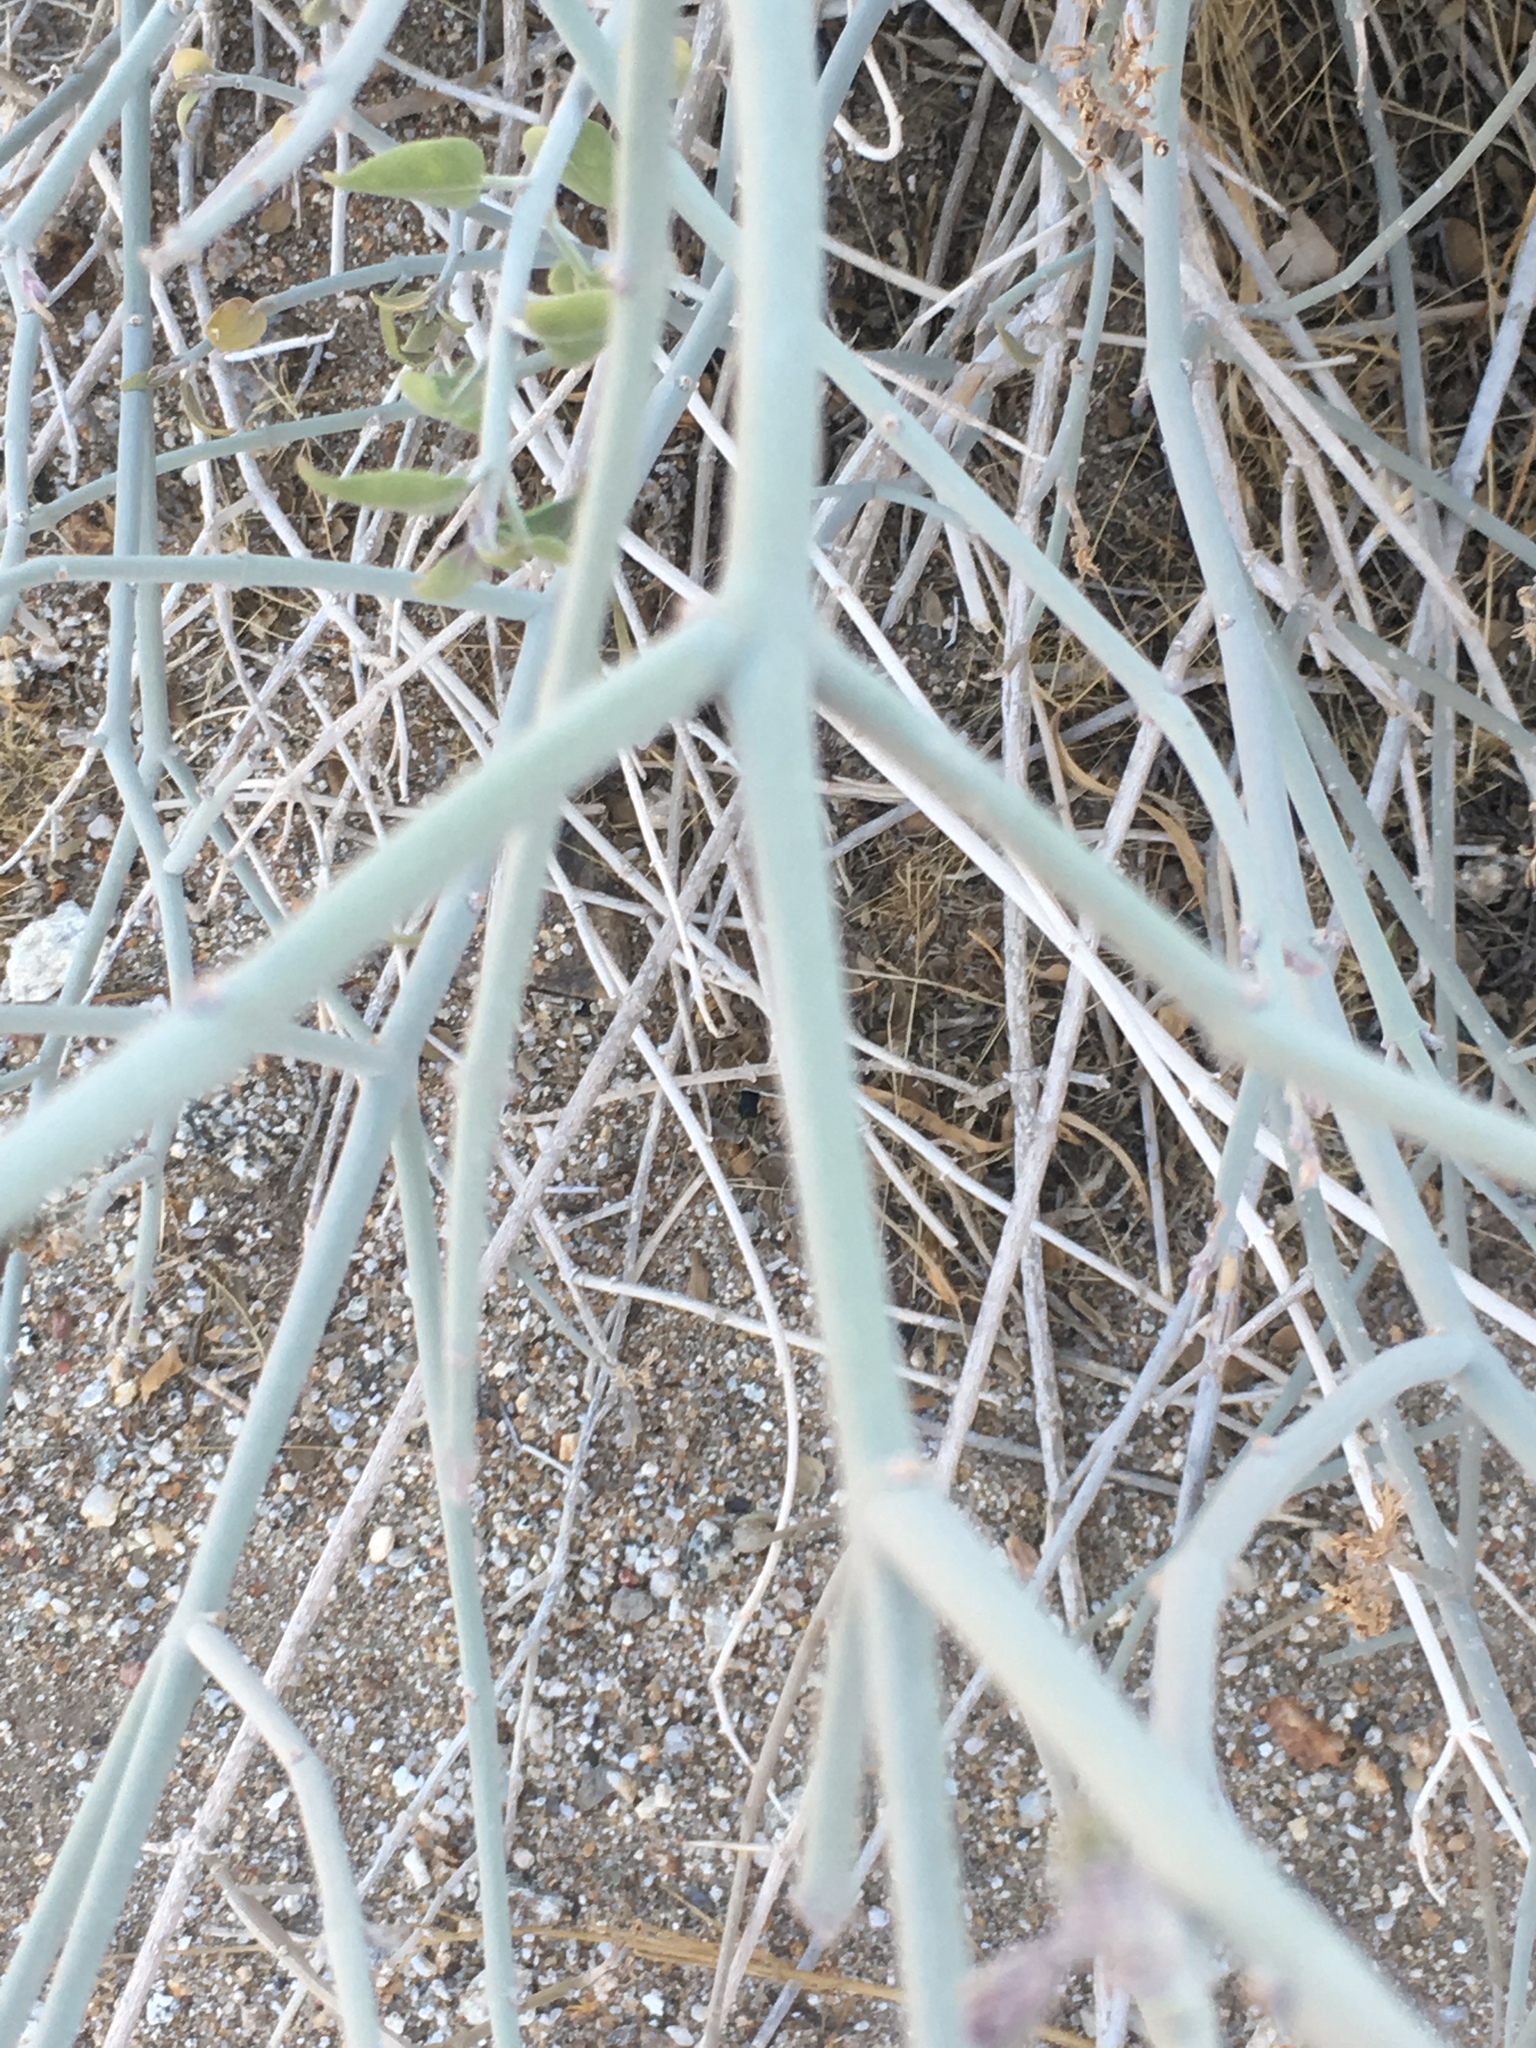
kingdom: Plantae
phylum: Tracheophyta
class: Magnoliopsida
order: Lamiales
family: Acanthaceae
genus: Justicia
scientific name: Justicia californica
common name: Chuparosa-honeysuckle
